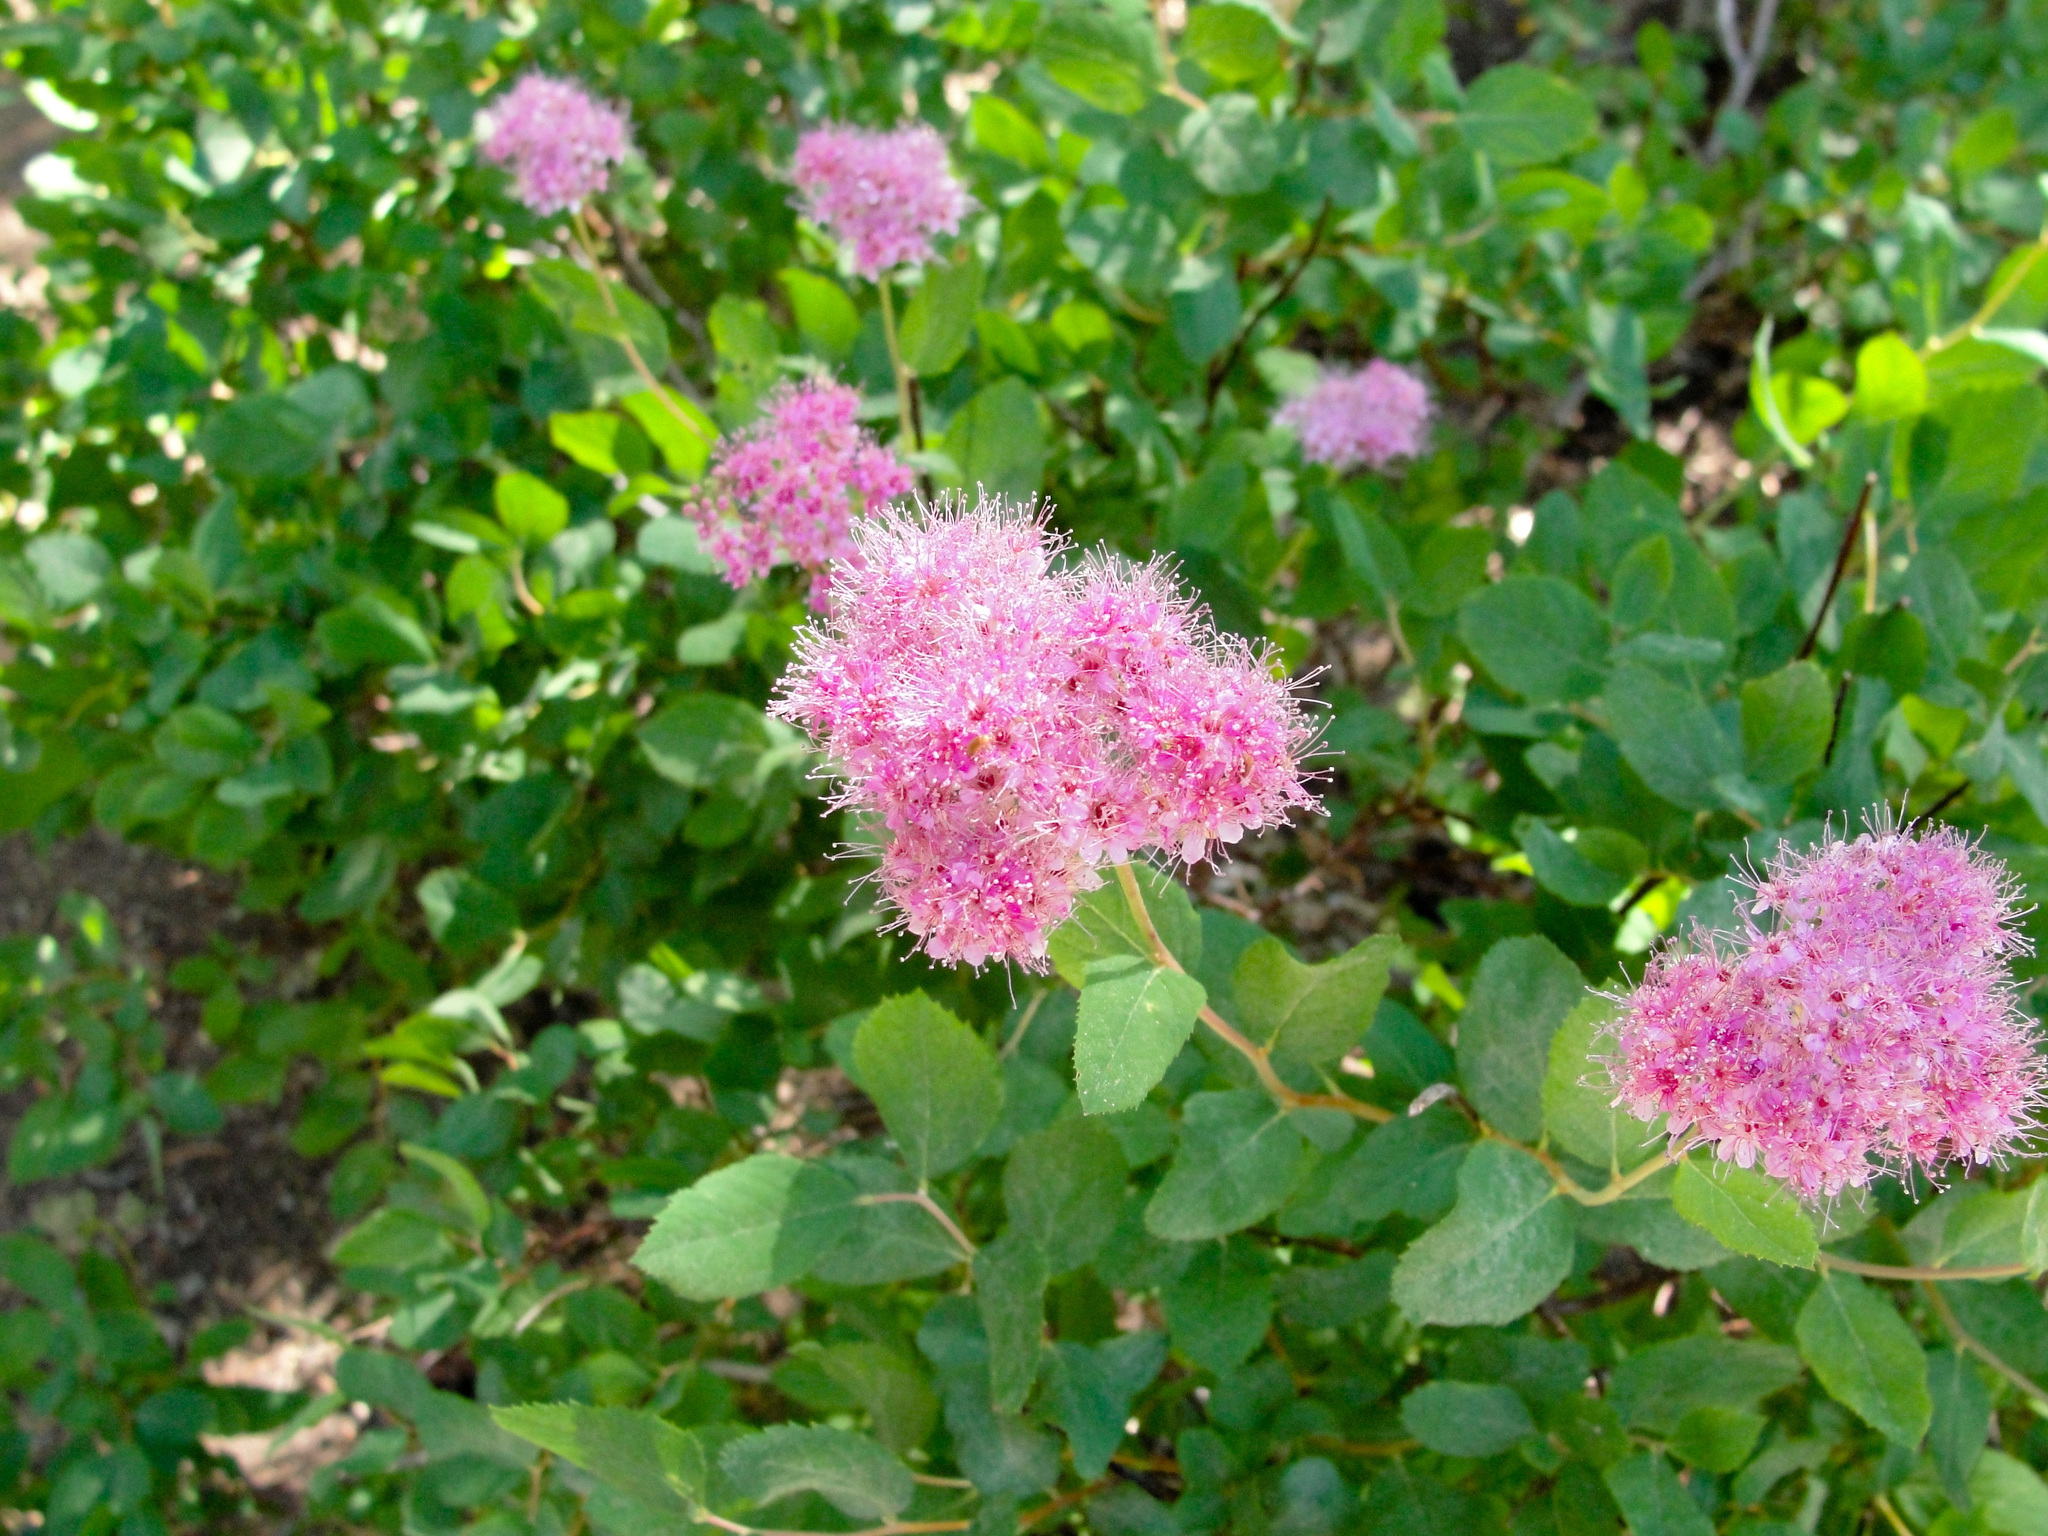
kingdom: Plantae
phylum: Tracheophyta
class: Magnoliopsida
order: Rosales
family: Rosaceae
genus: Spiraea
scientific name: Spiraea splendens
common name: Subalpine meadowsweet
